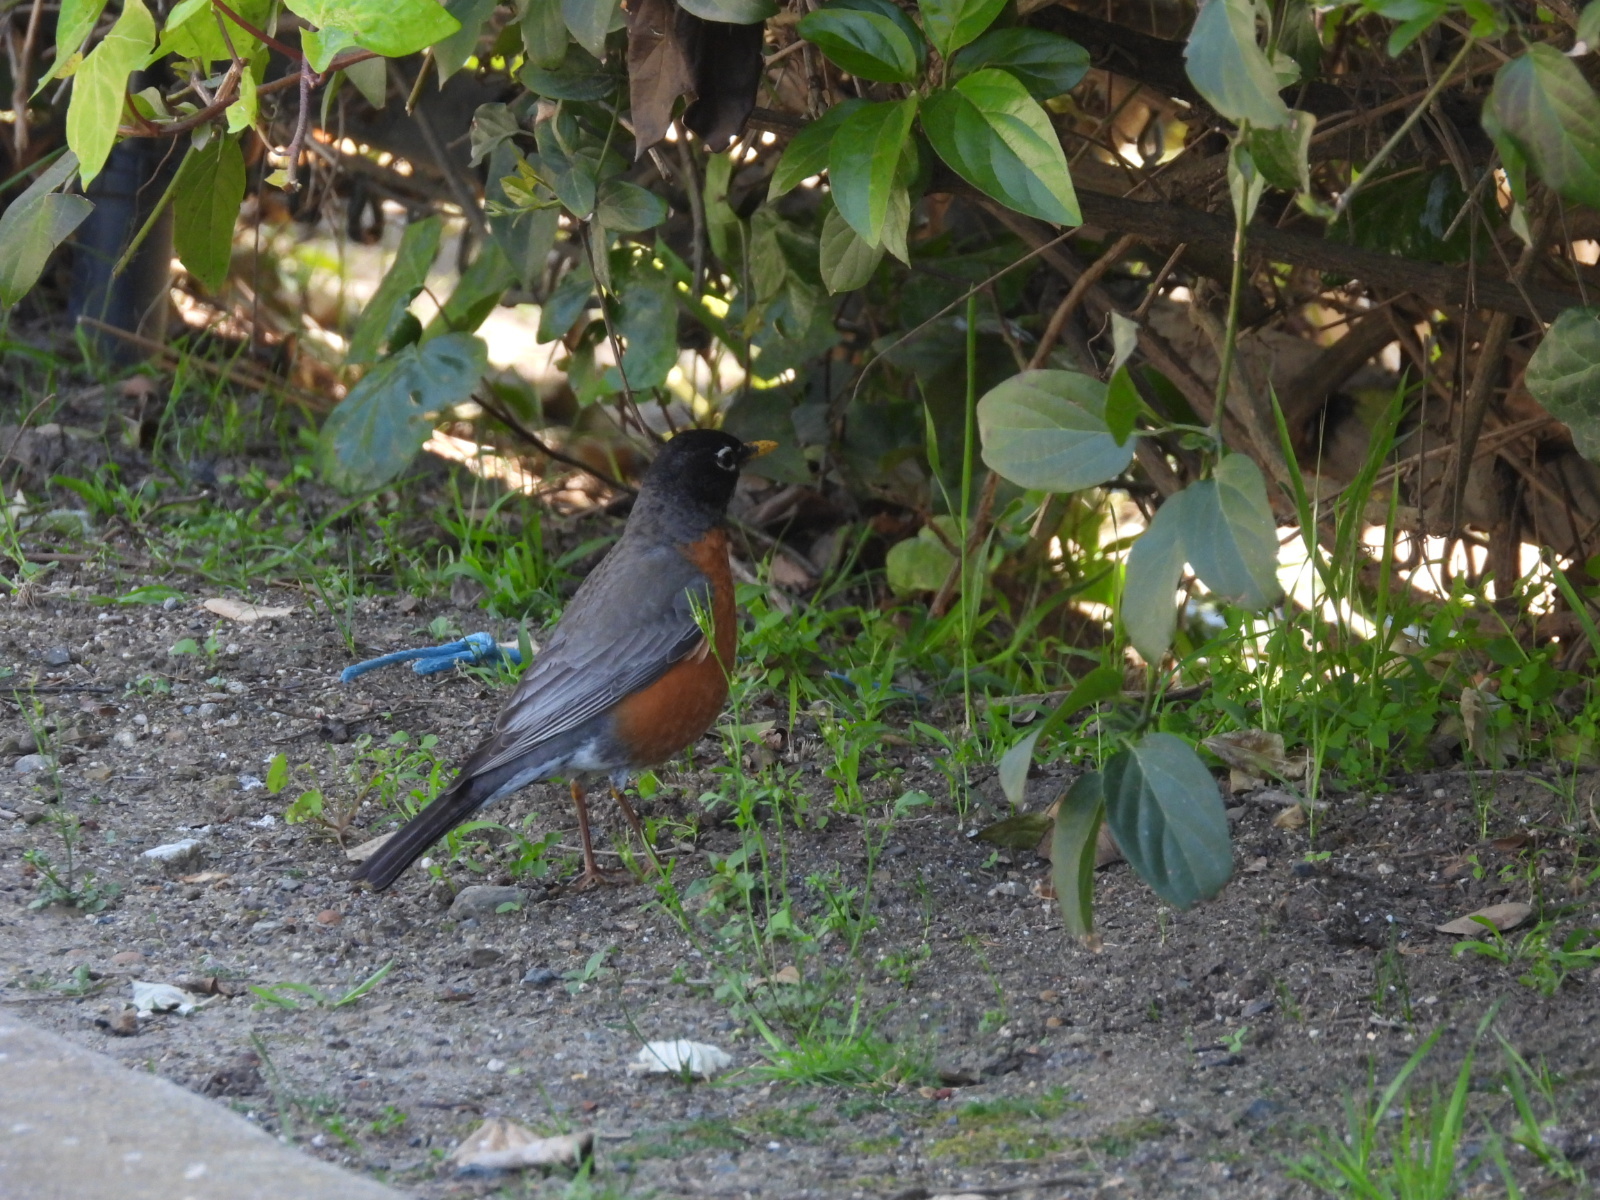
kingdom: Animalia
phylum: Chordata
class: Aves
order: Passeriformes
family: Turdidae
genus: Turdus
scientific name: Turdus migratorius
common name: American robin
